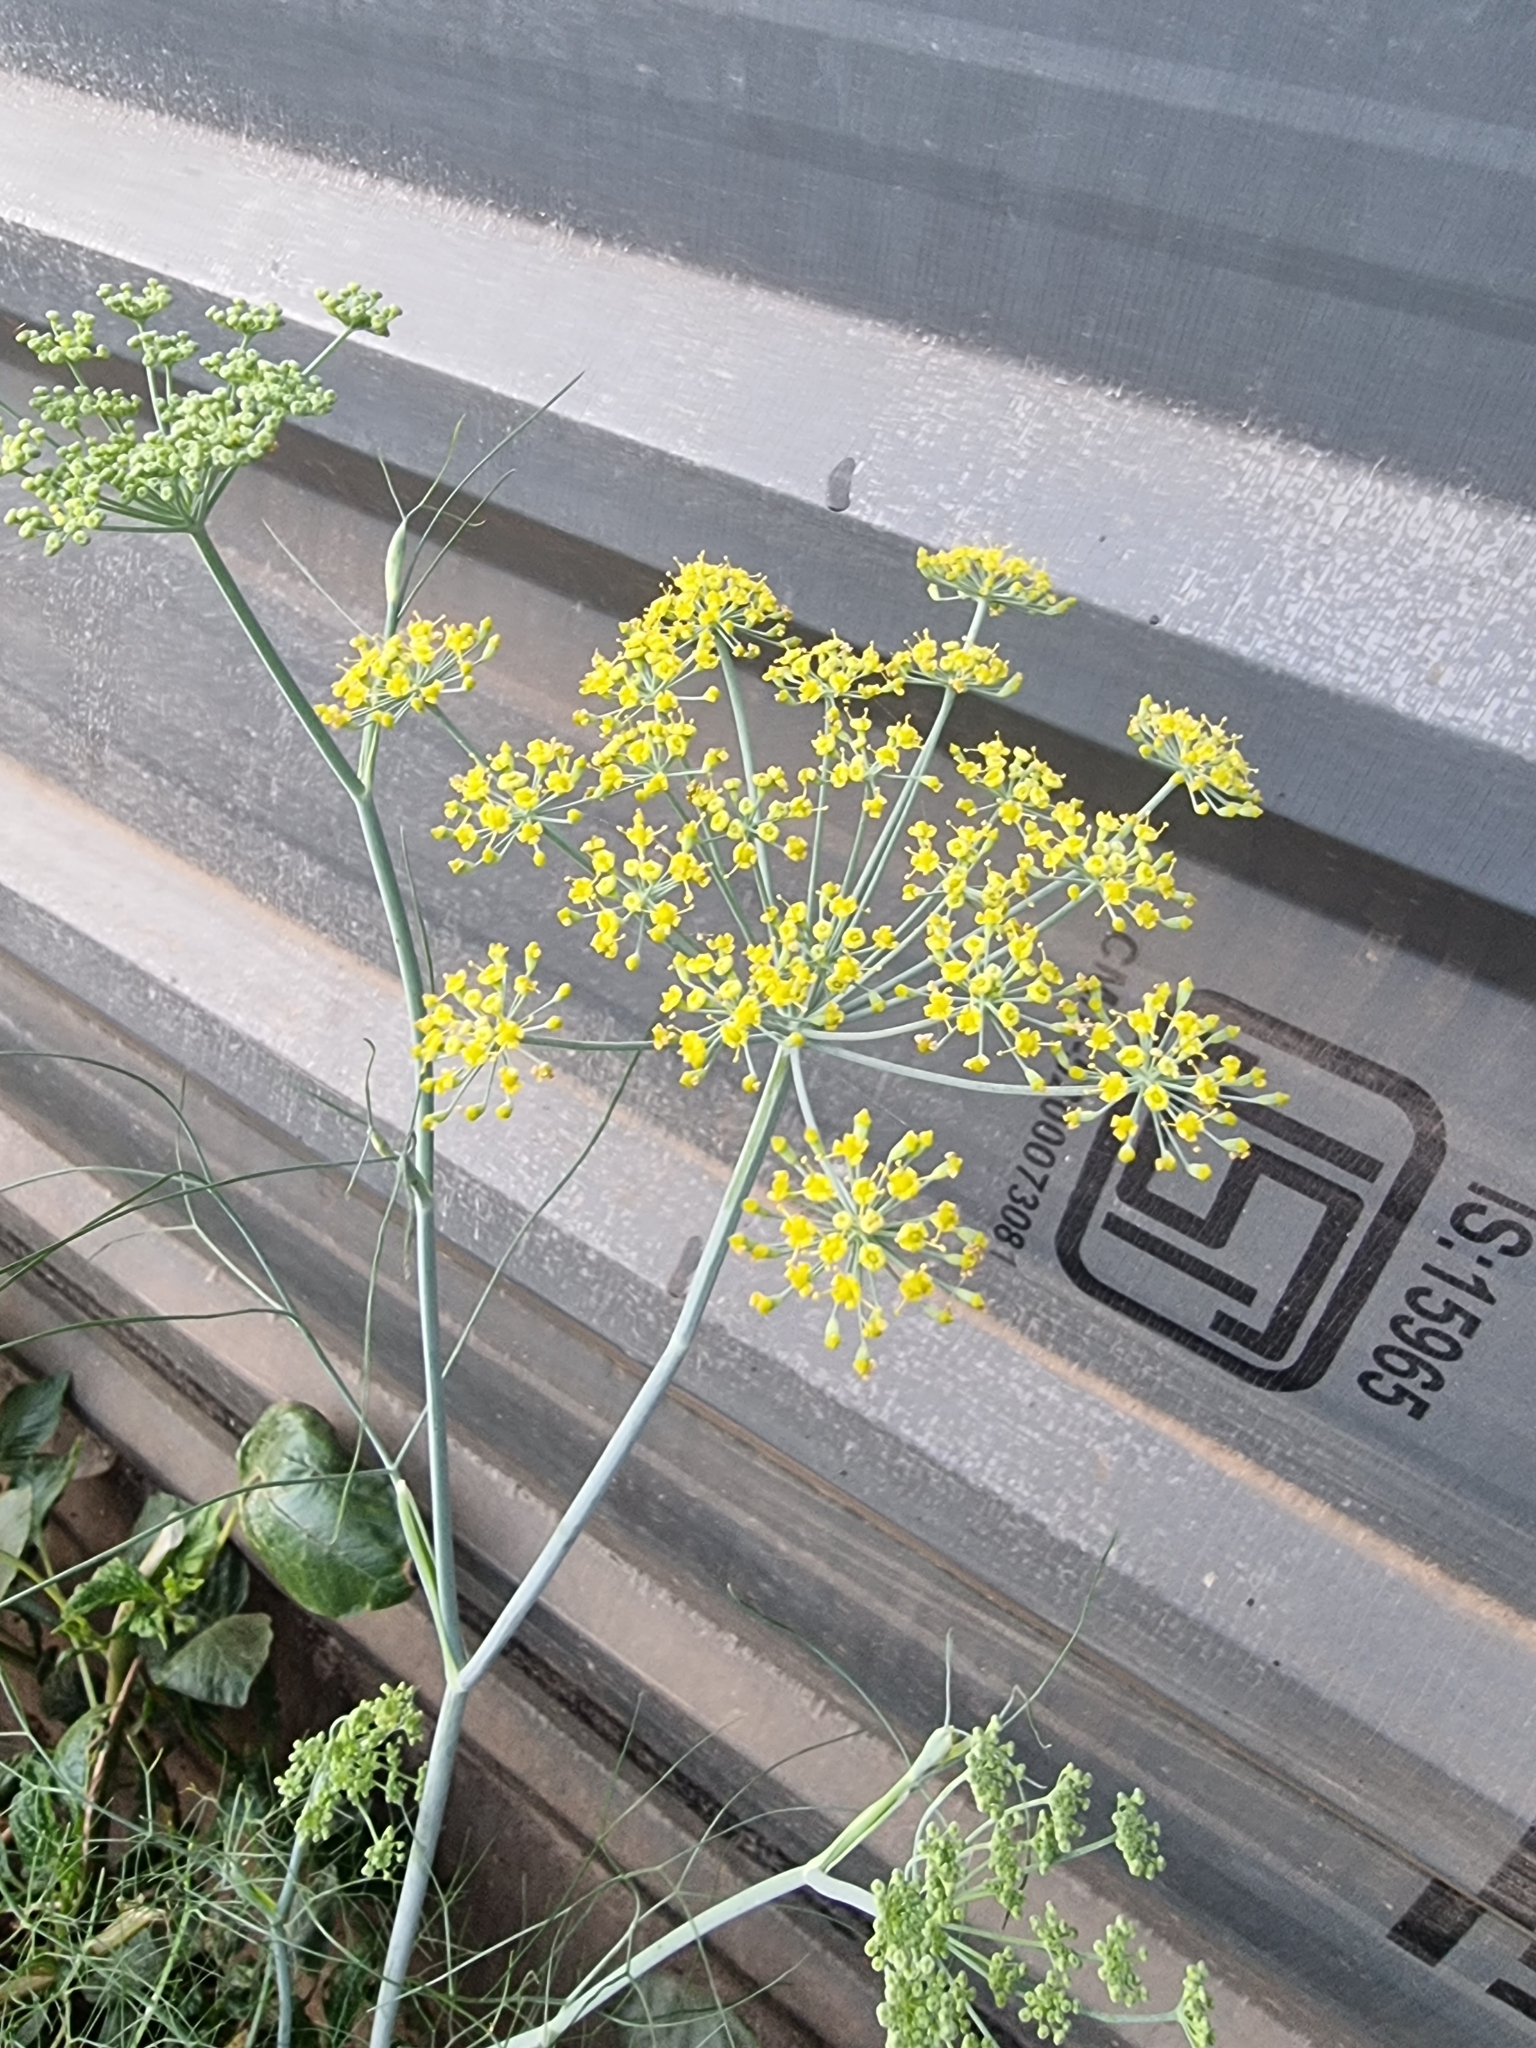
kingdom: Plantae
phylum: Tracheophyta
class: Magnoliopsida
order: Apiales
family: Apiaceae
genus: Foeniculum
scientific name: Foeniculum vulgare
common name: Fennel
